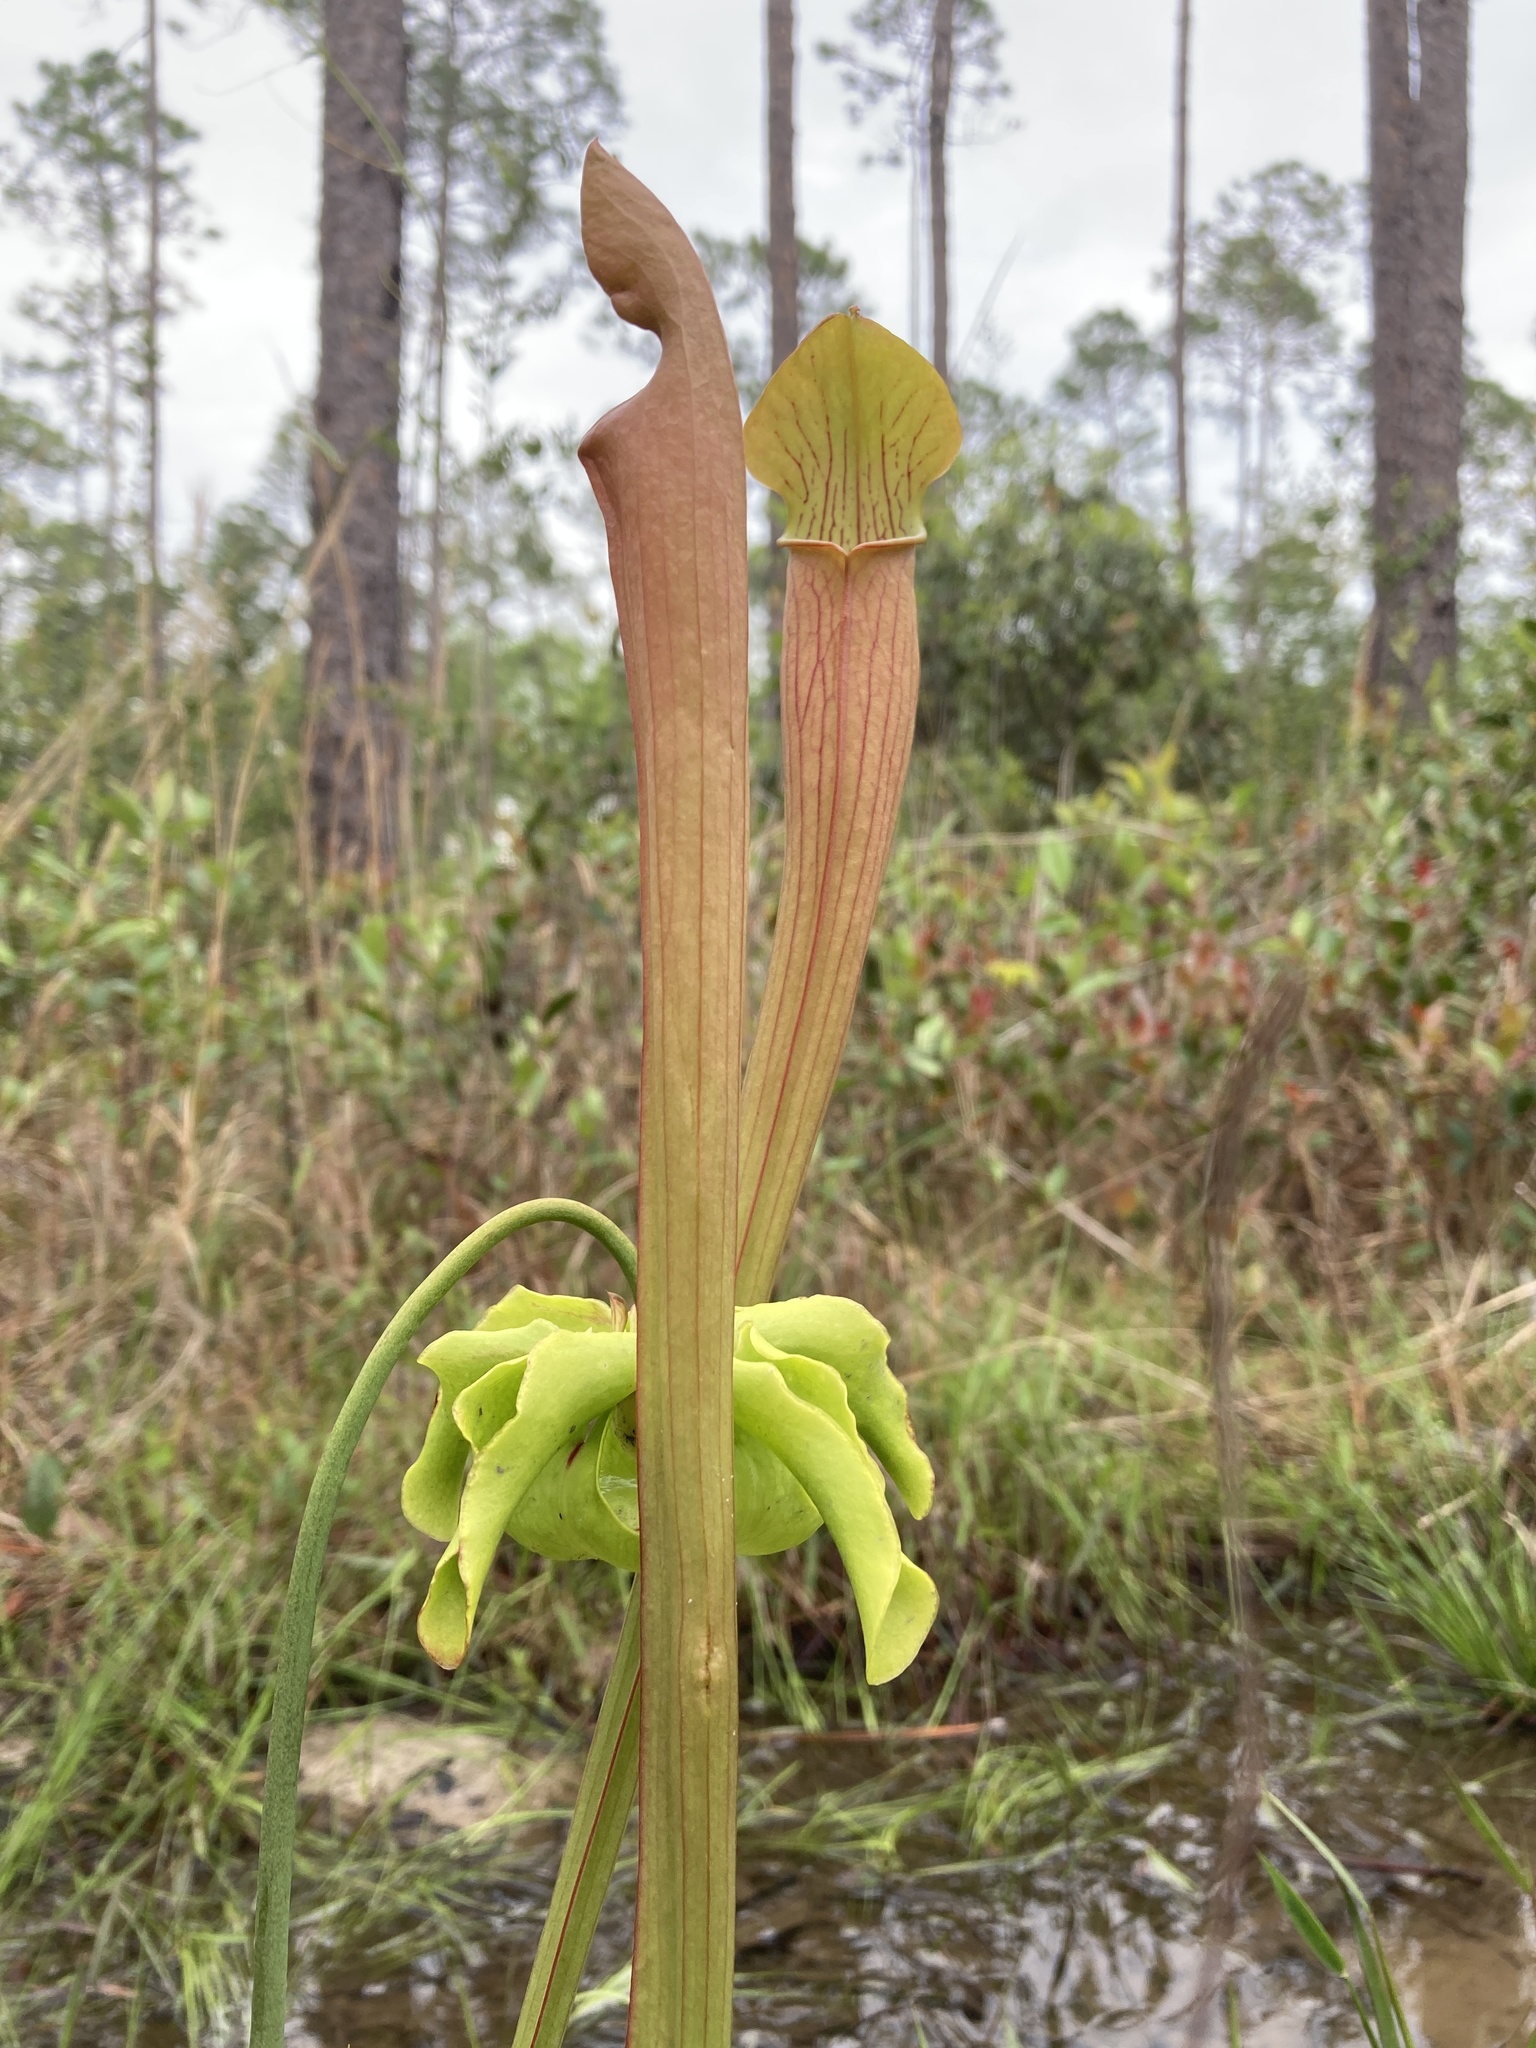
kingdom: Plantae
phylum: Tracheophyta
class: Magnoliopsida
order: Ericales
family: Sarraceniaceae
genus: Sarracenia
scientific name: Sarracenia alata
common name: Yellow trumpets
